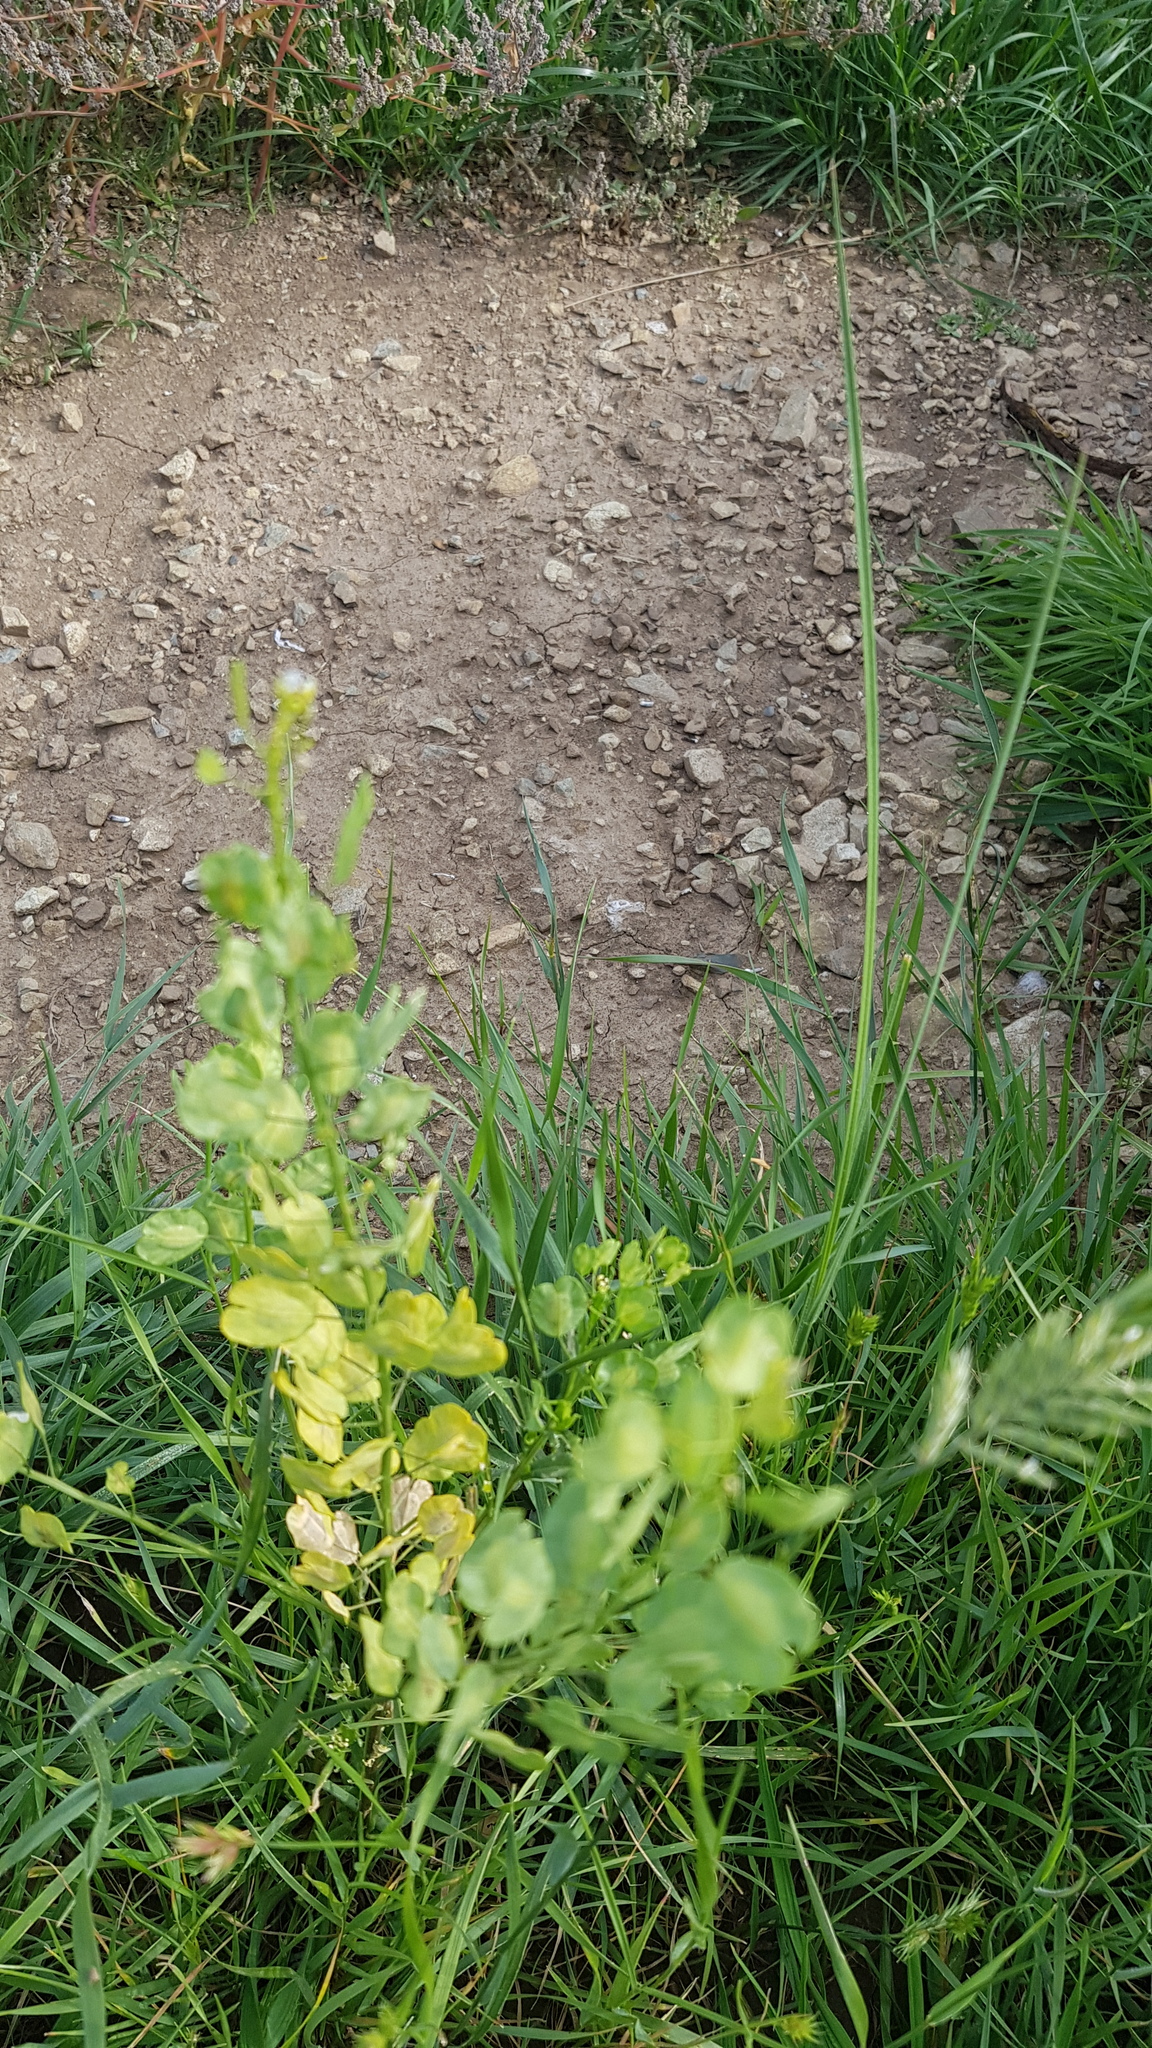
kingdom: Plantae
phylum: Tracheophyta
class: Magnoliopsida
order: Brassicales
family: Brassicaceae
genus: Thlaspi
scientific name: Thlaspi arvense
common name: Field pennycress
